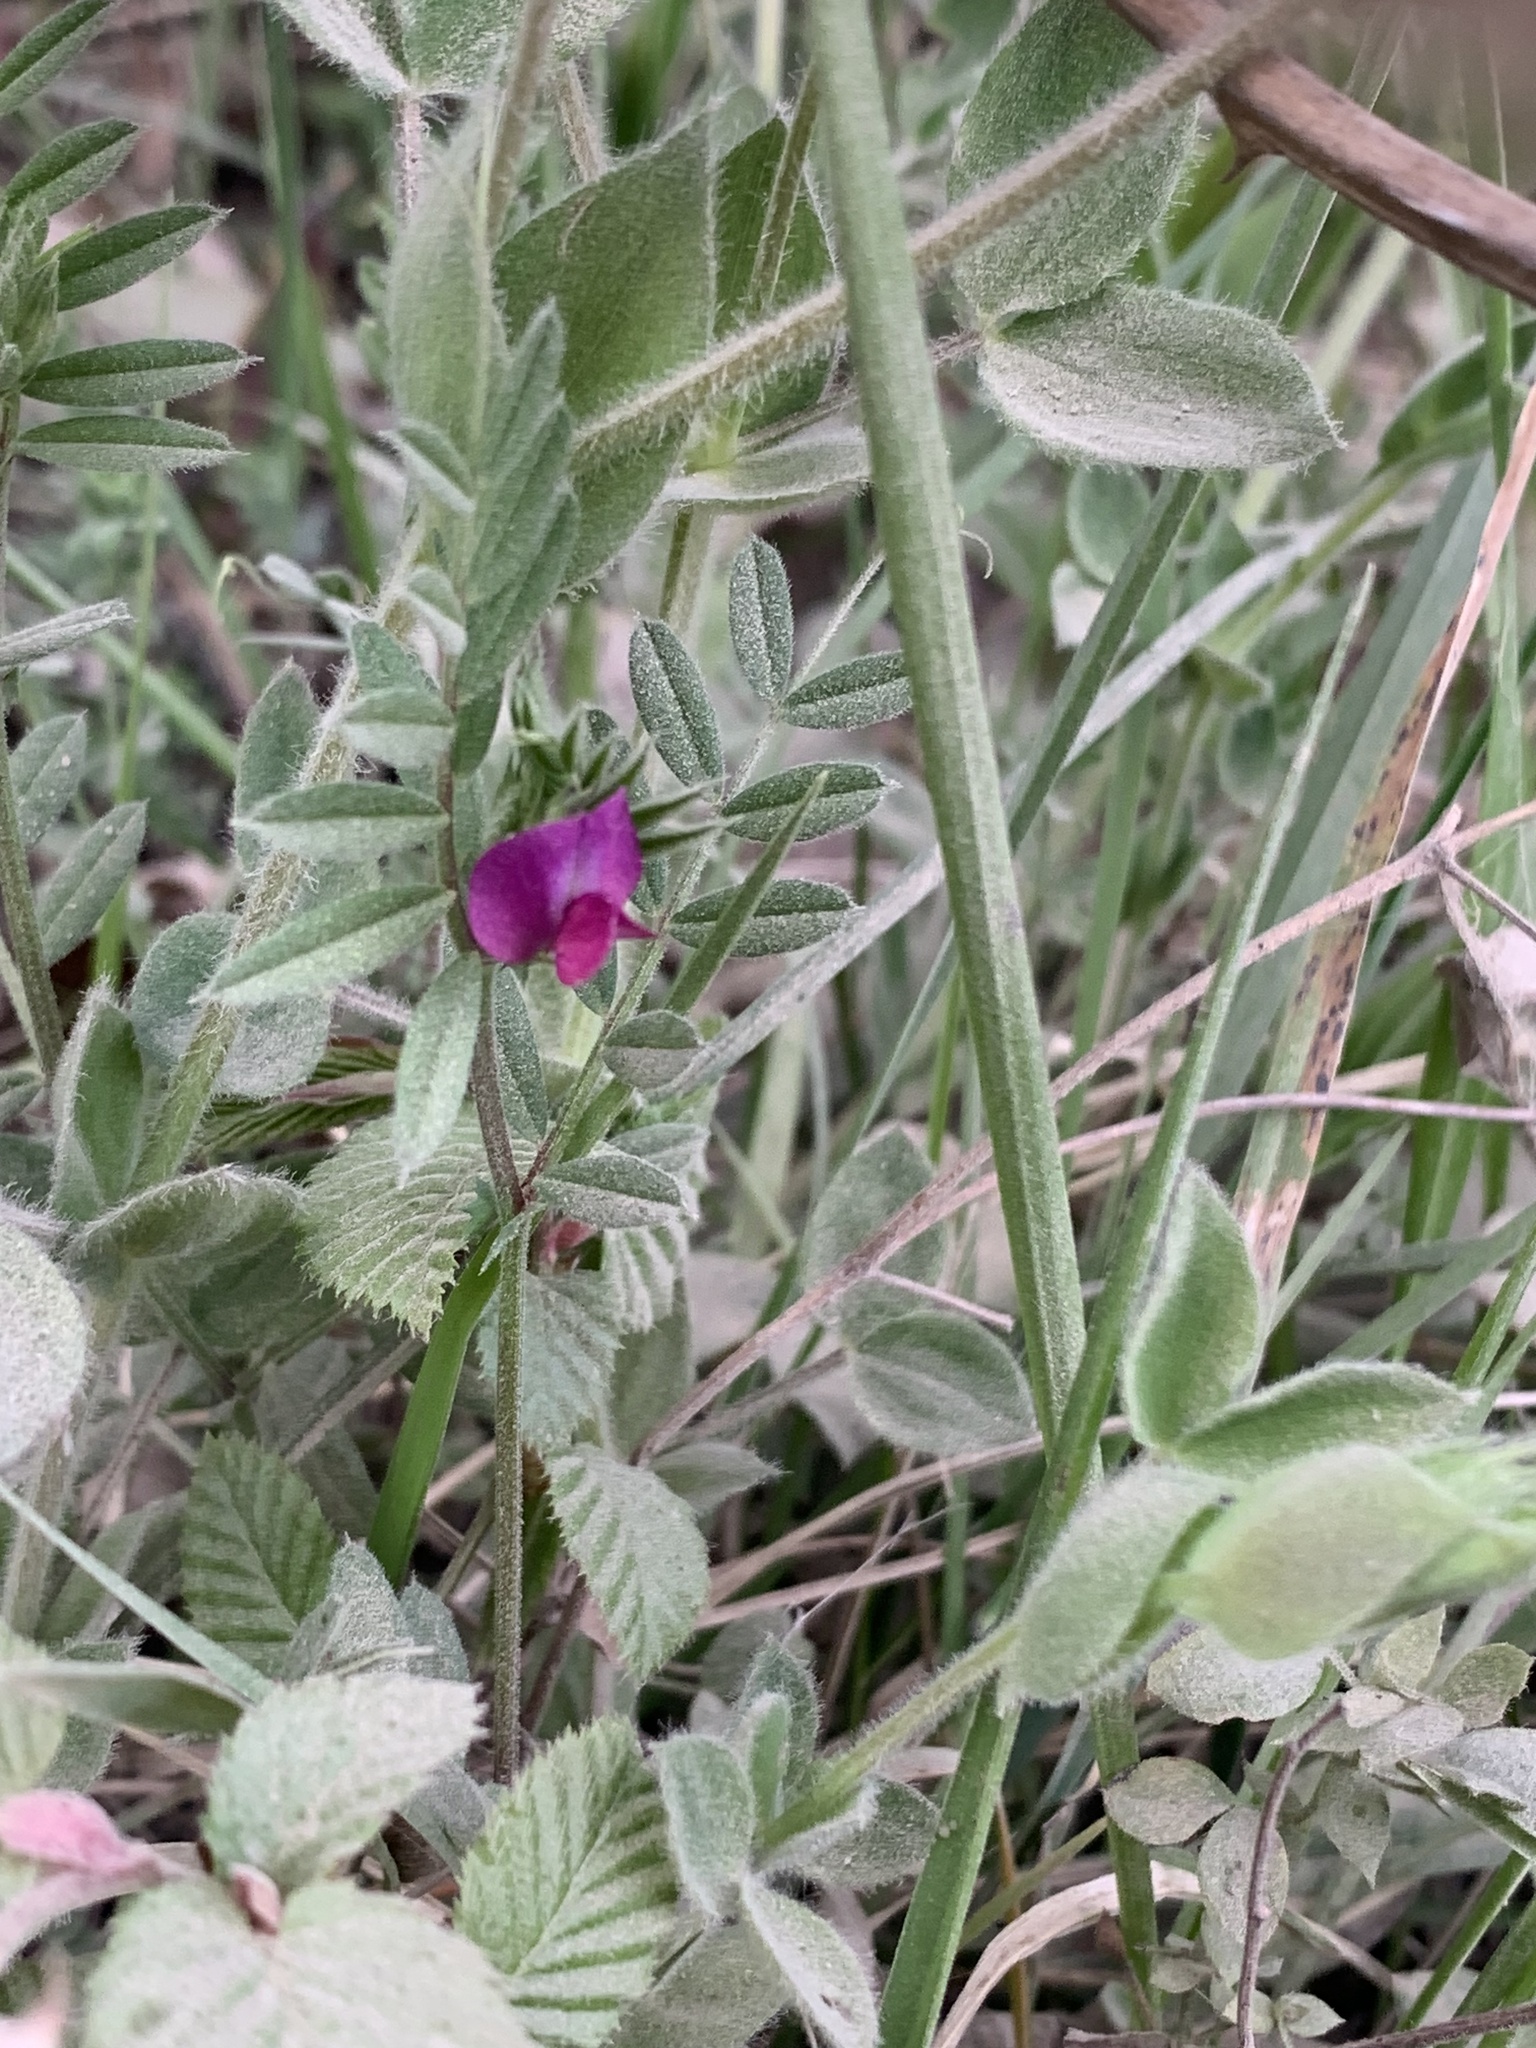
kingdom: Plantae
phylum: Tracheophyta
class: Magnoliopsida
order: Fabales
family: Fabaceae
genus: Vicia
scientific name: Vicia sativa
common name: Garden vetch
